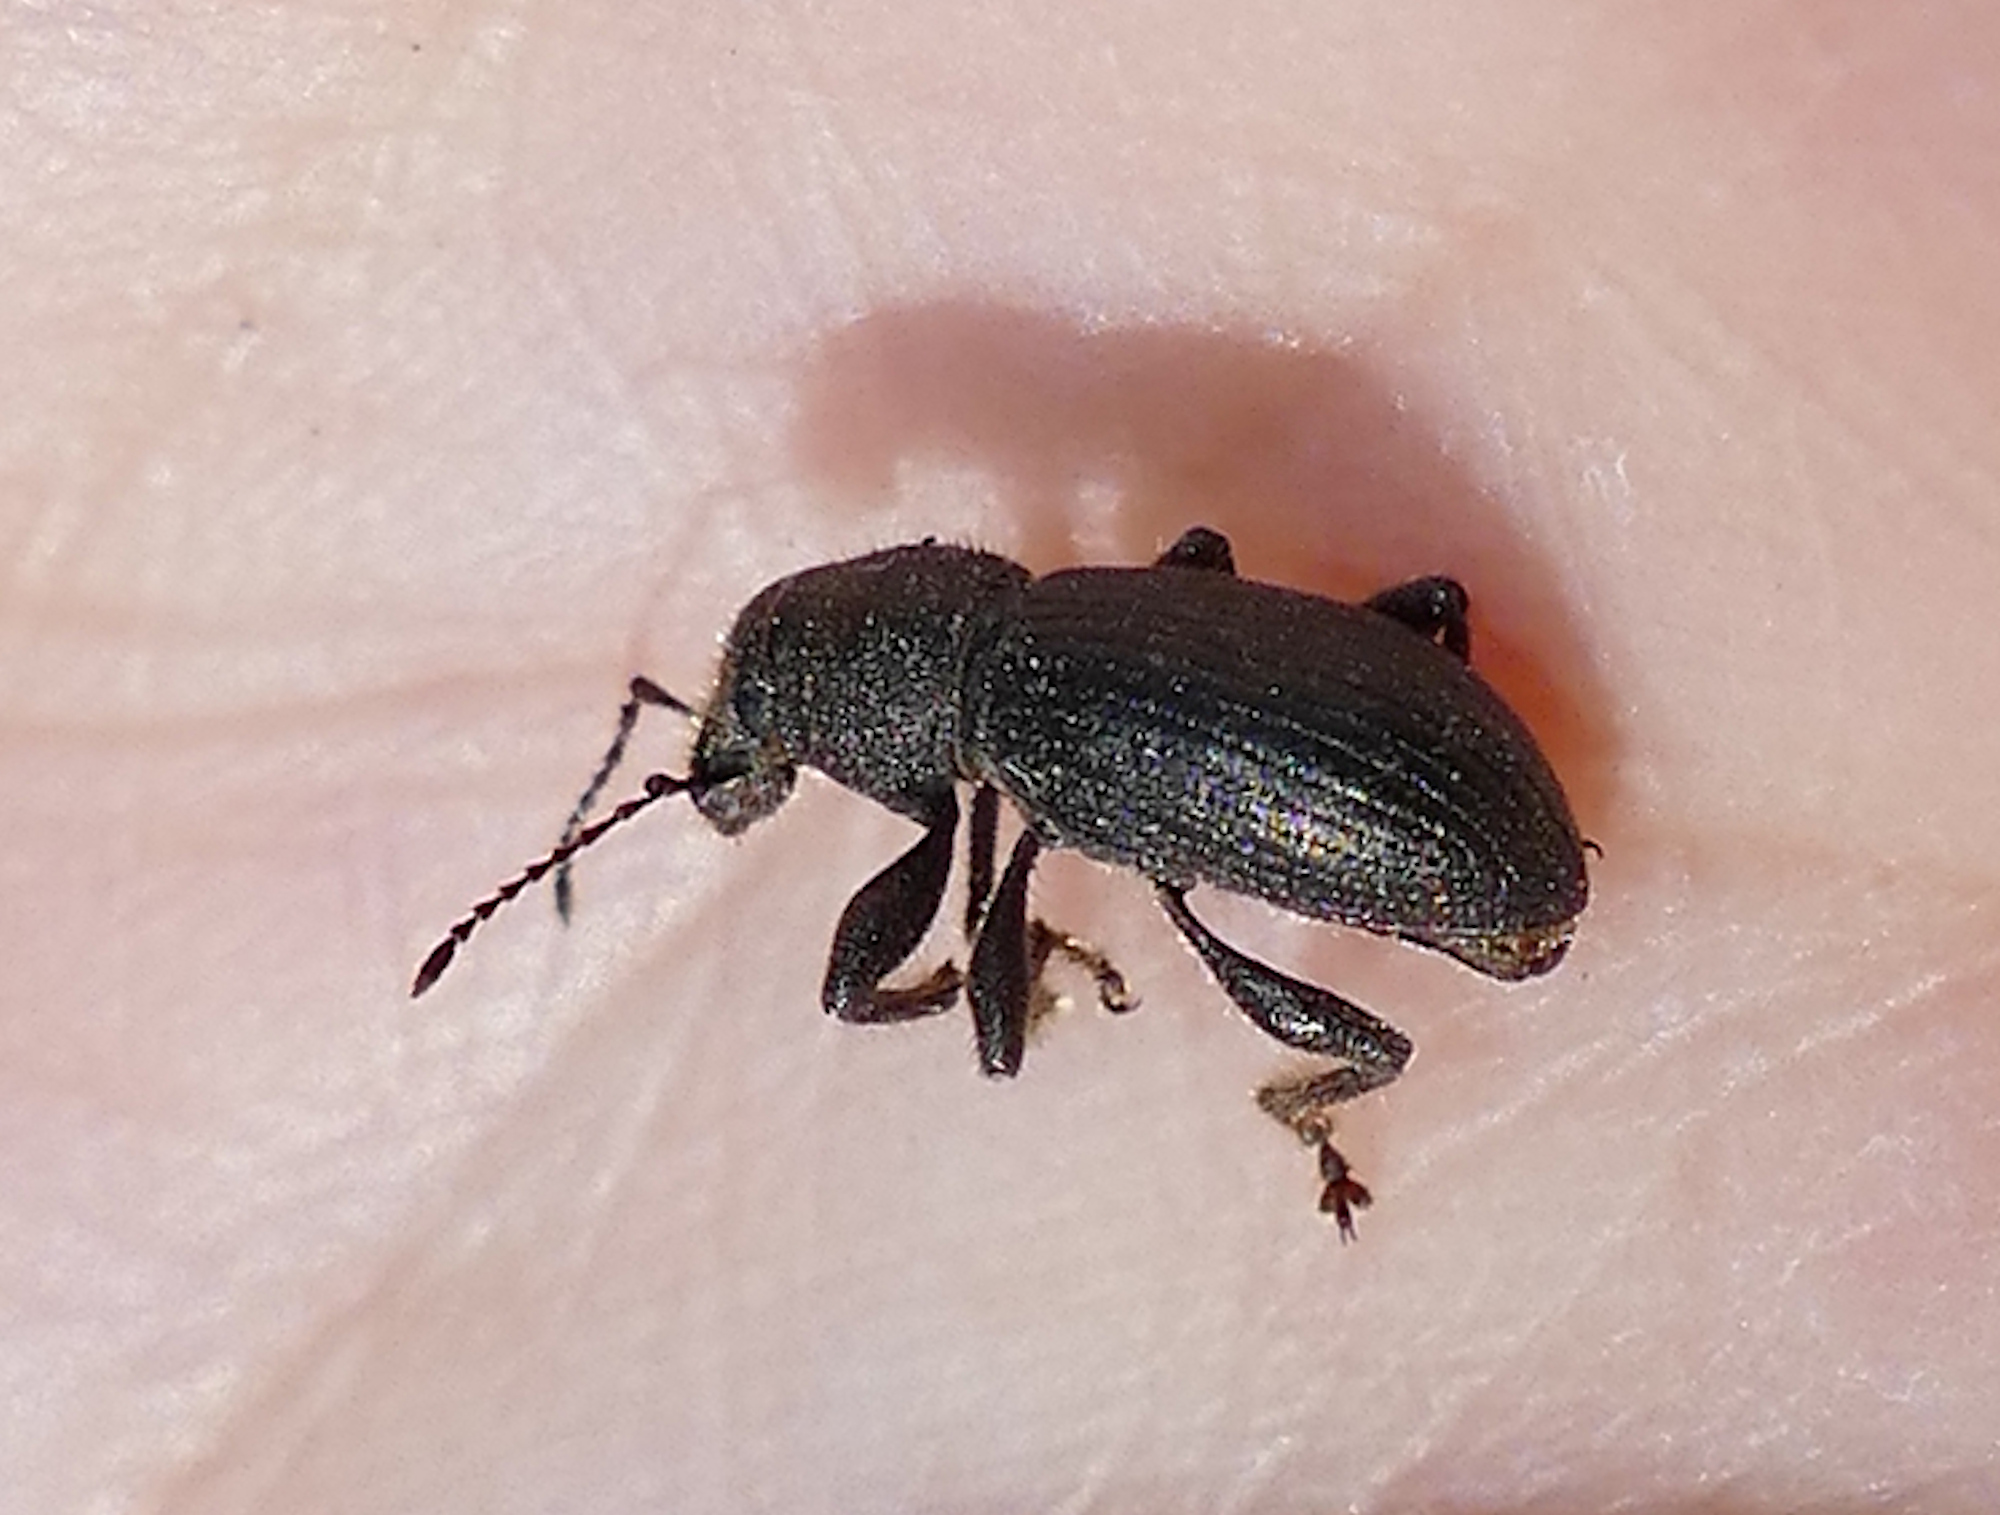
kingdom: Animalia
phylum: Arthropoda
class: Insecta
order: Coleoptera
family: Curculionidae
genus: Crocidema
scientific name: Crocidema arizonica
